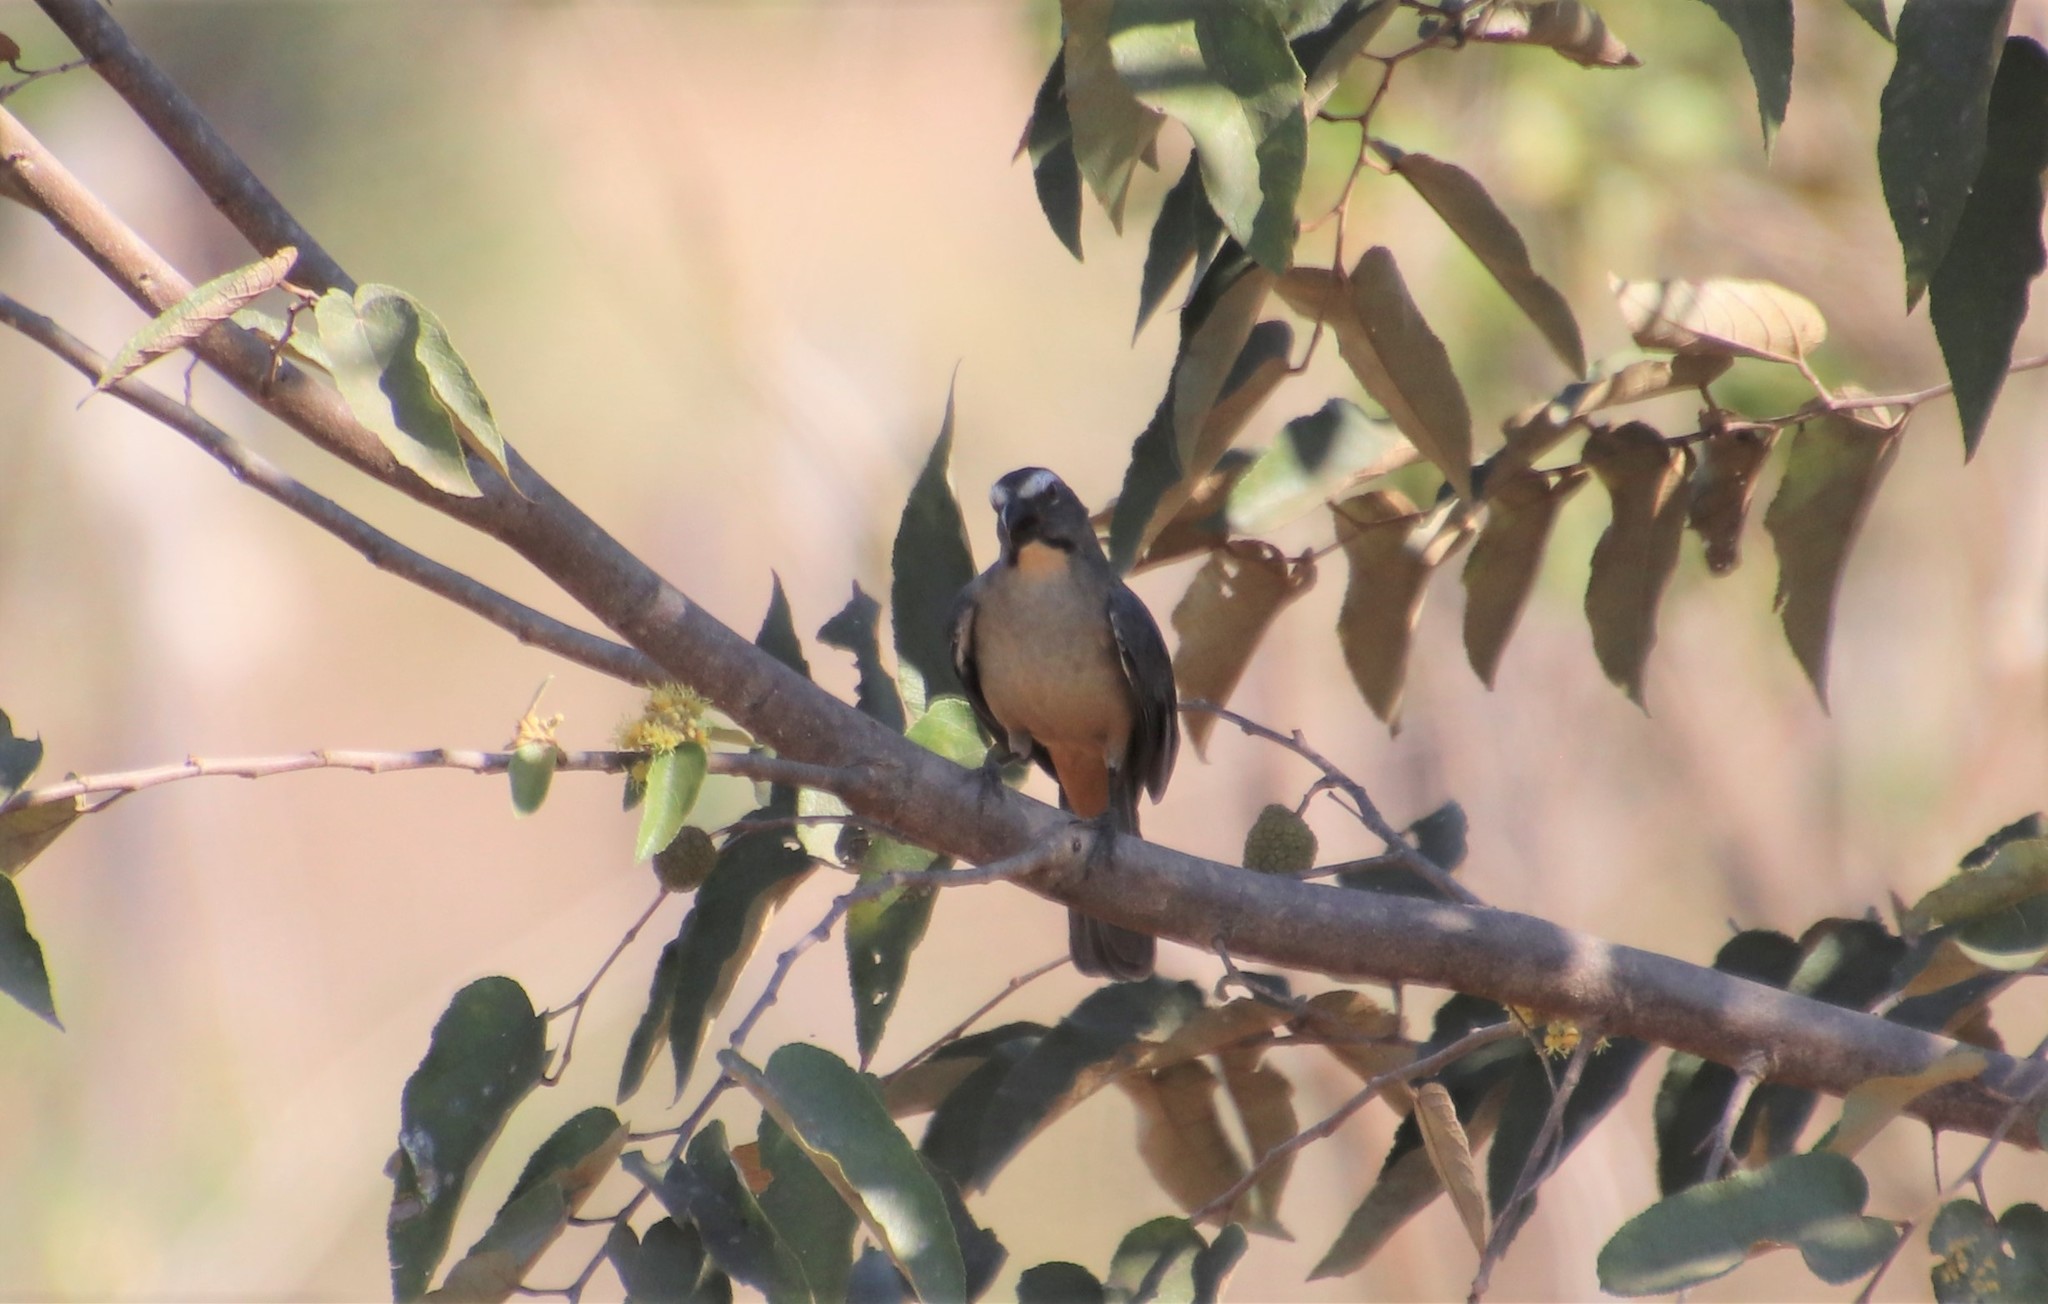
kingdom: Animalia
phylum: Chordata
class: Aves
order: Passeriformes
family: Thraupidae
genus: Saltator
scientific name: Saltator coerulescens
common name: Grayish saltator
